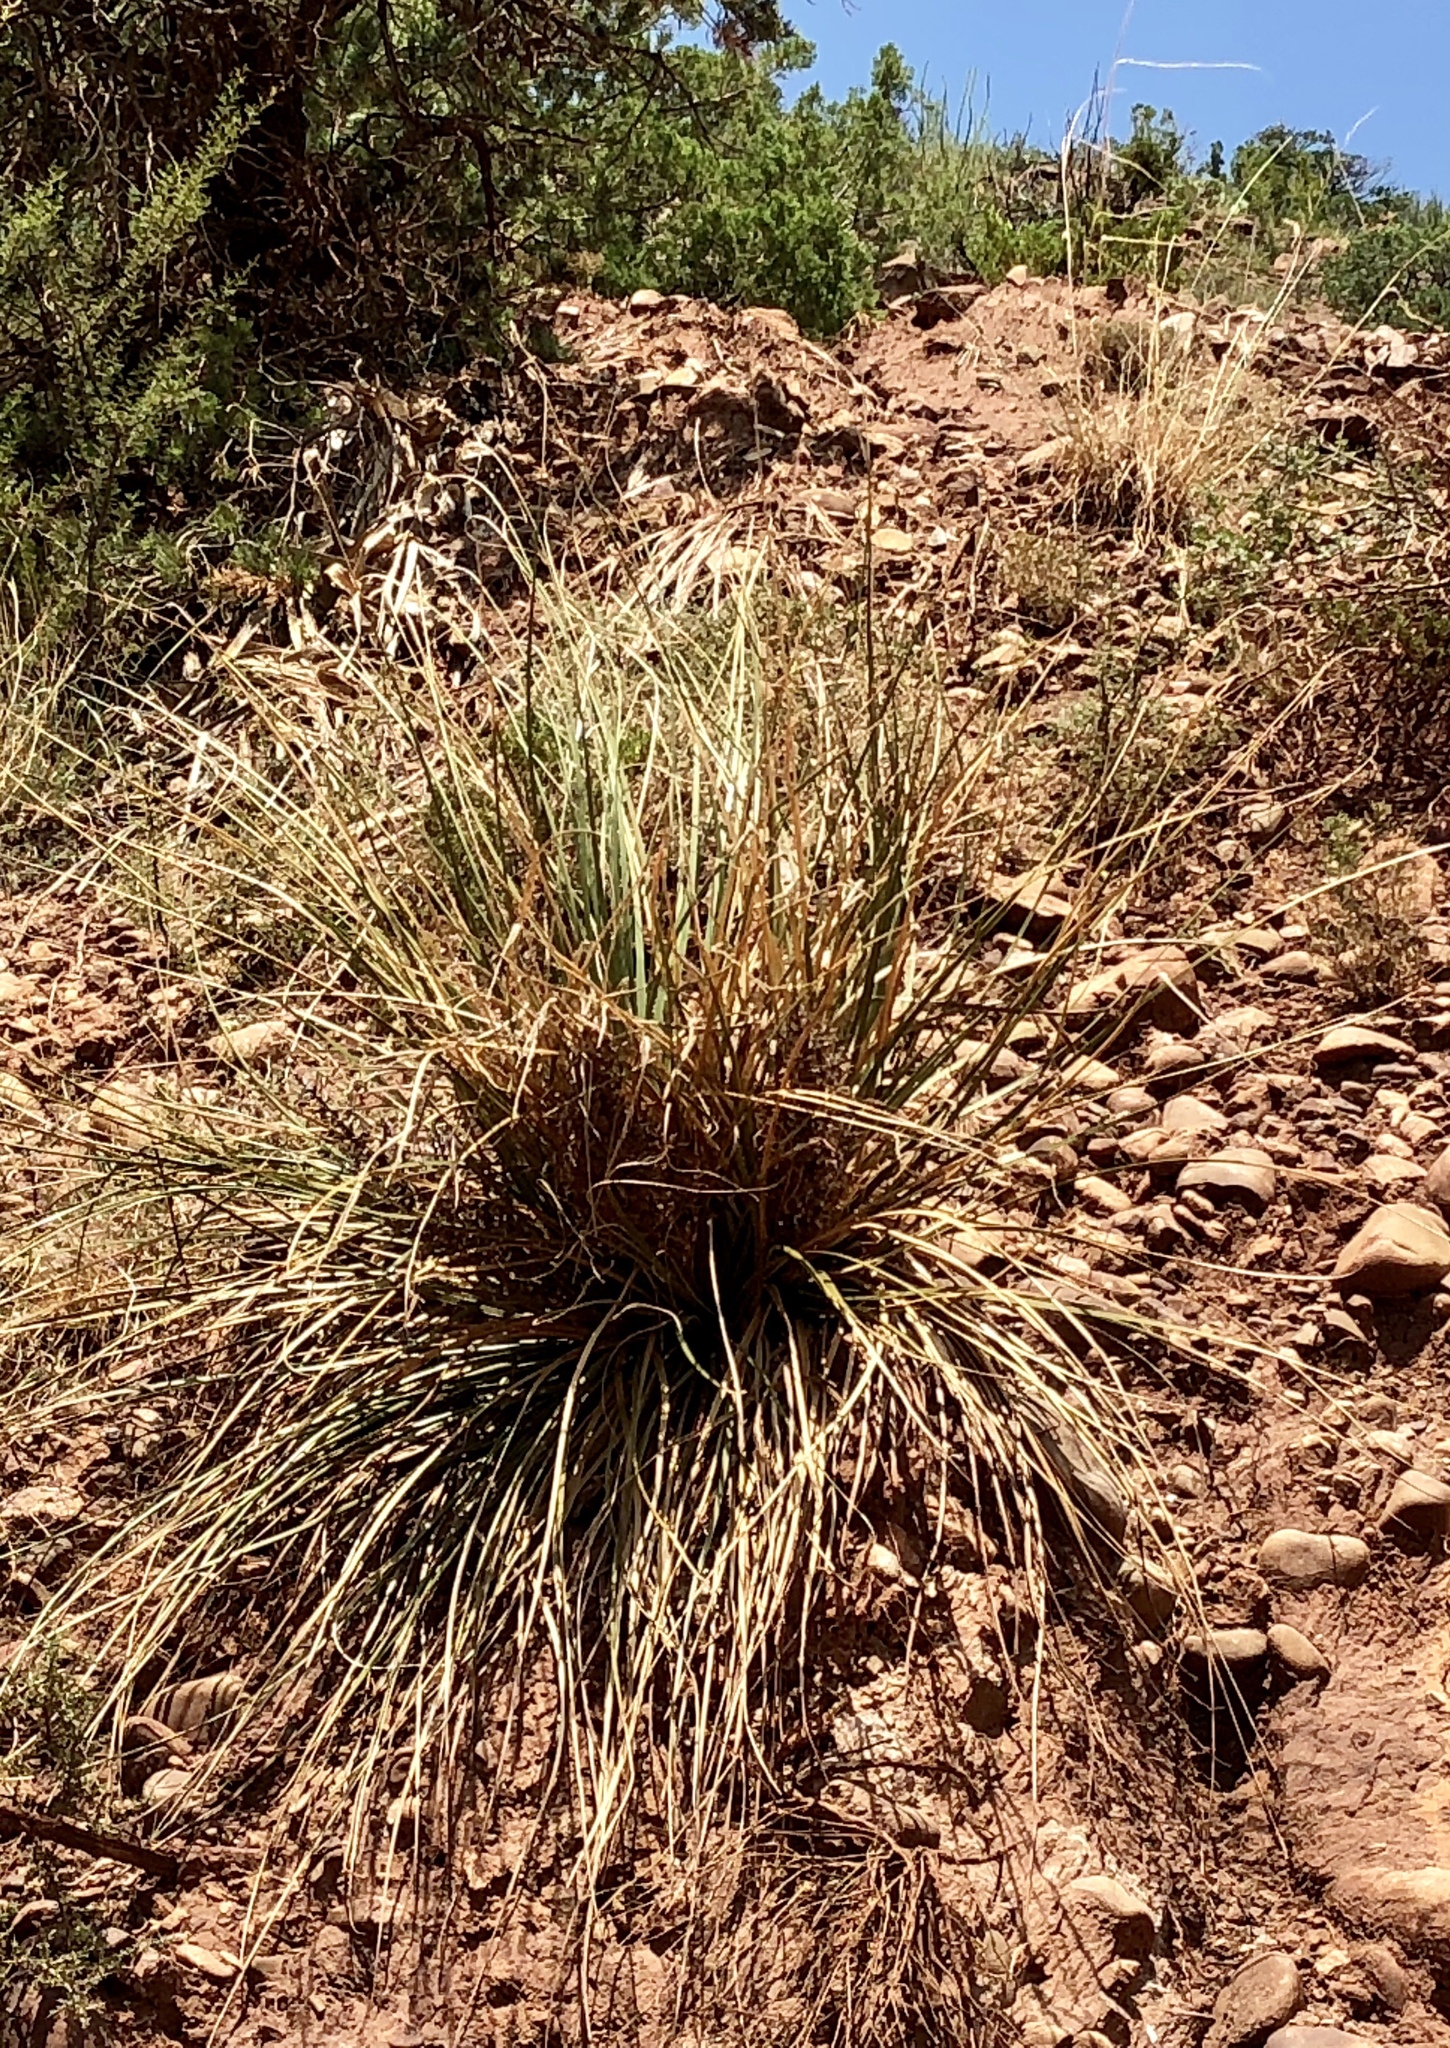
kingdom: Plantae
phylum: Tracheophyta
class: Liliopsida
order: Asparagales
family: Asparagaceae
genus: Nolina
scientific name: Nolina microcarpa
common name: Bear-grass
